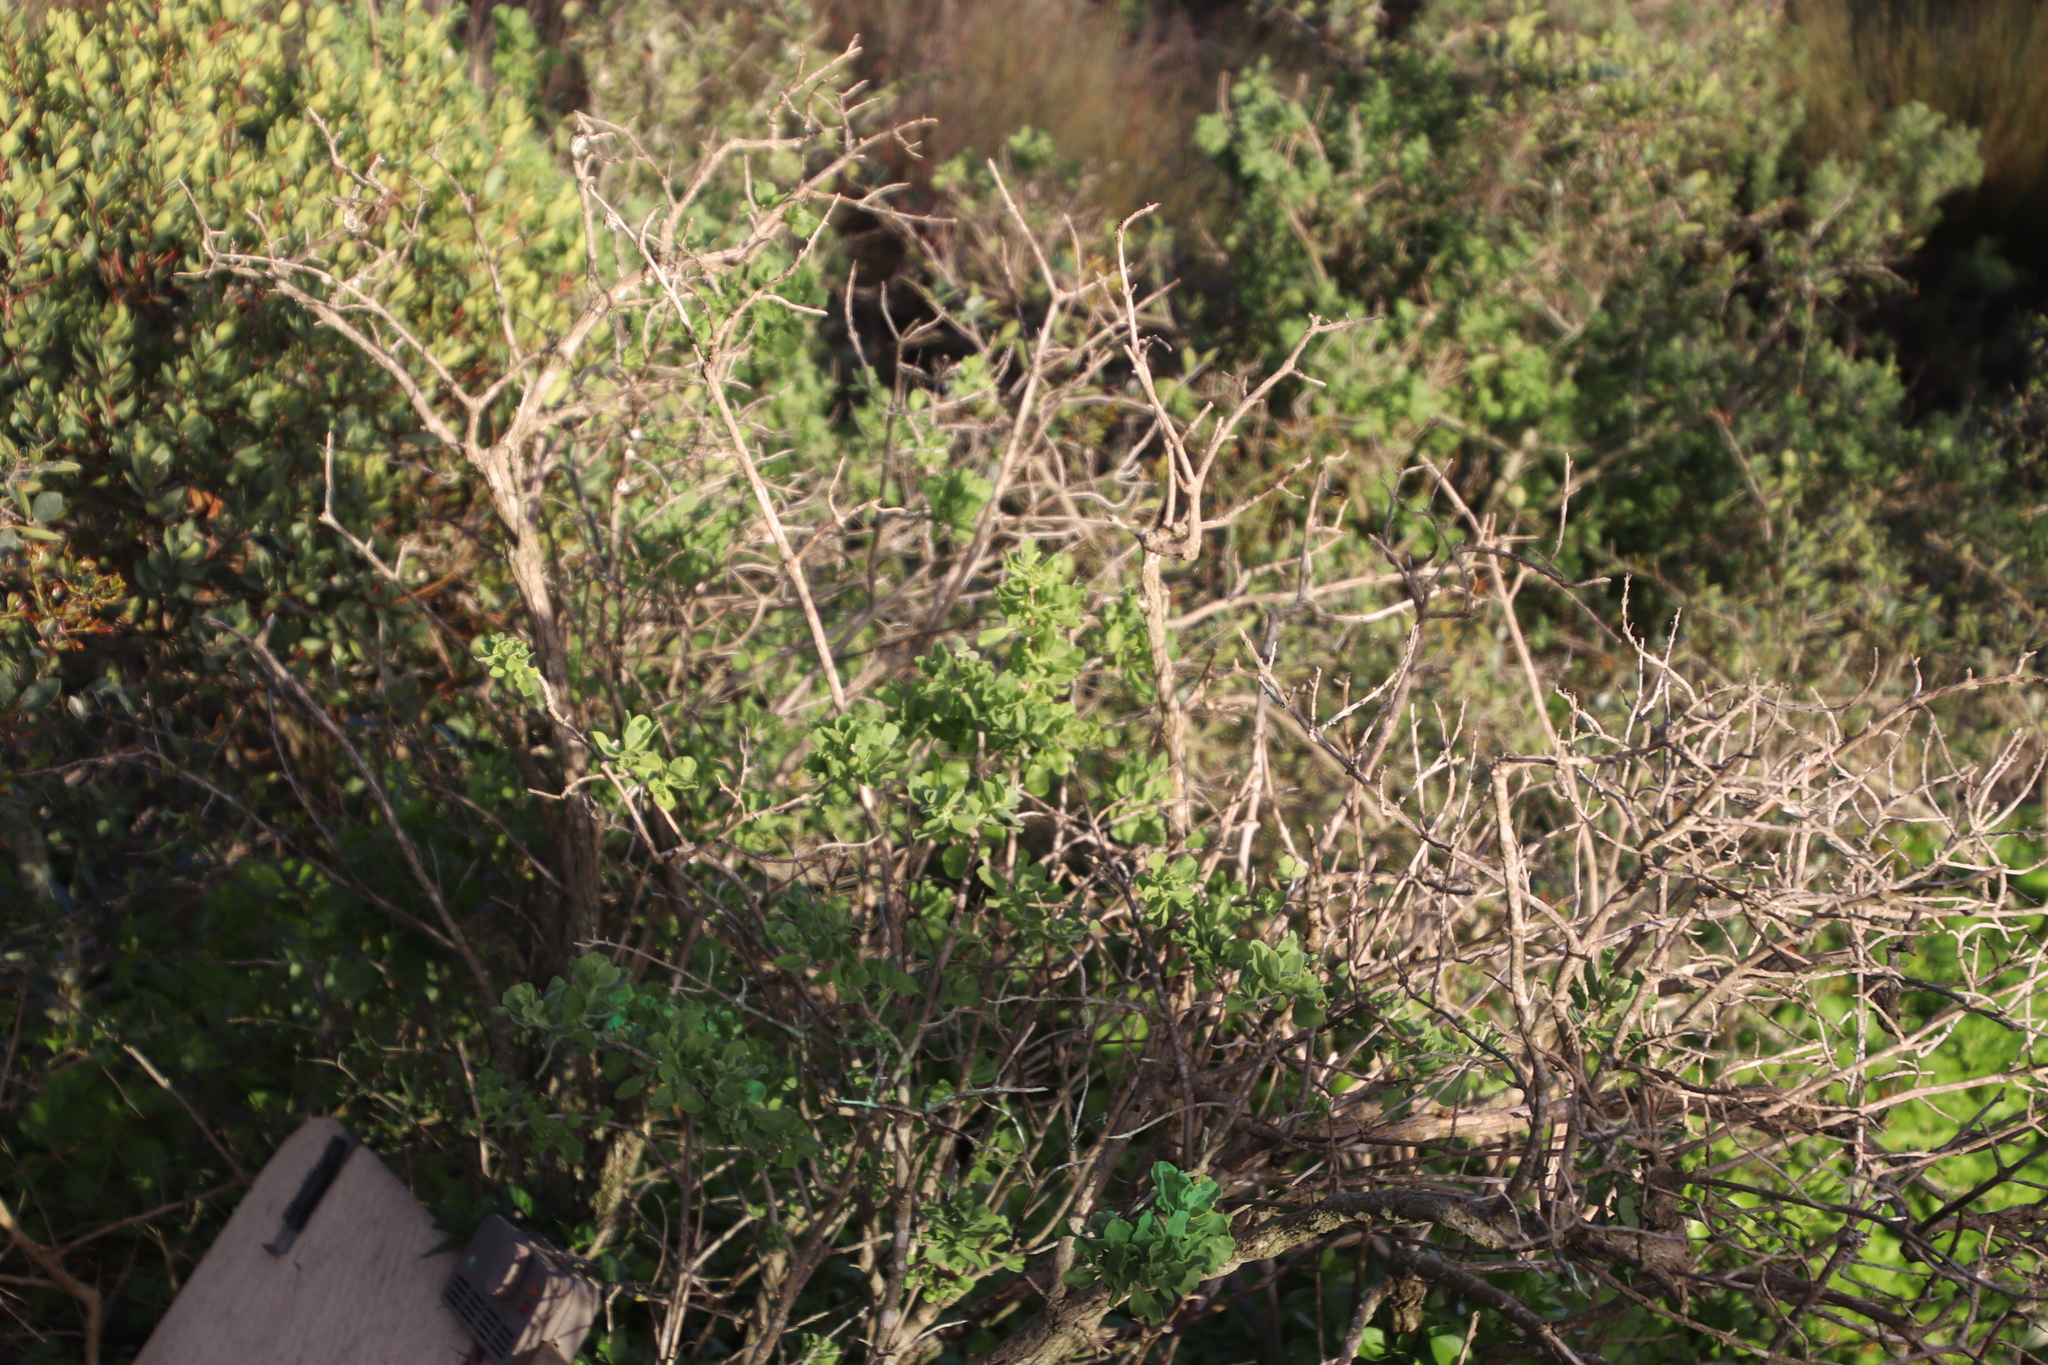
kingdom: Plantae
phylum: Tracheophyta
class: Magnoliopsida
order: Lamiales
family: Lamiaceae
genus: Salvia
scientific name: Salvia aurea
